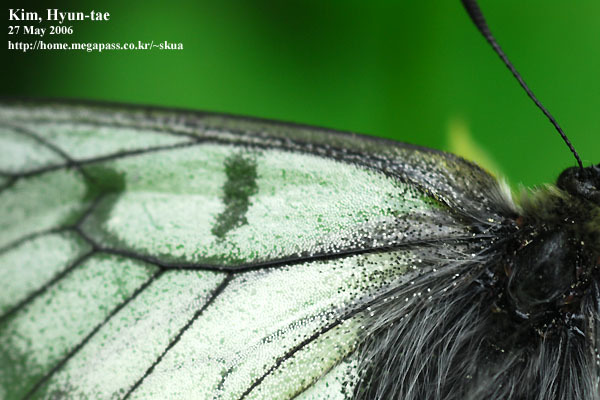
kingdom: Animalia
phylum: Arthropoda
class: Insecta
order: Lepidoptera
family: Papilionidae
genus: Parnassius
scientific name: Parnassius stubbendorfii
